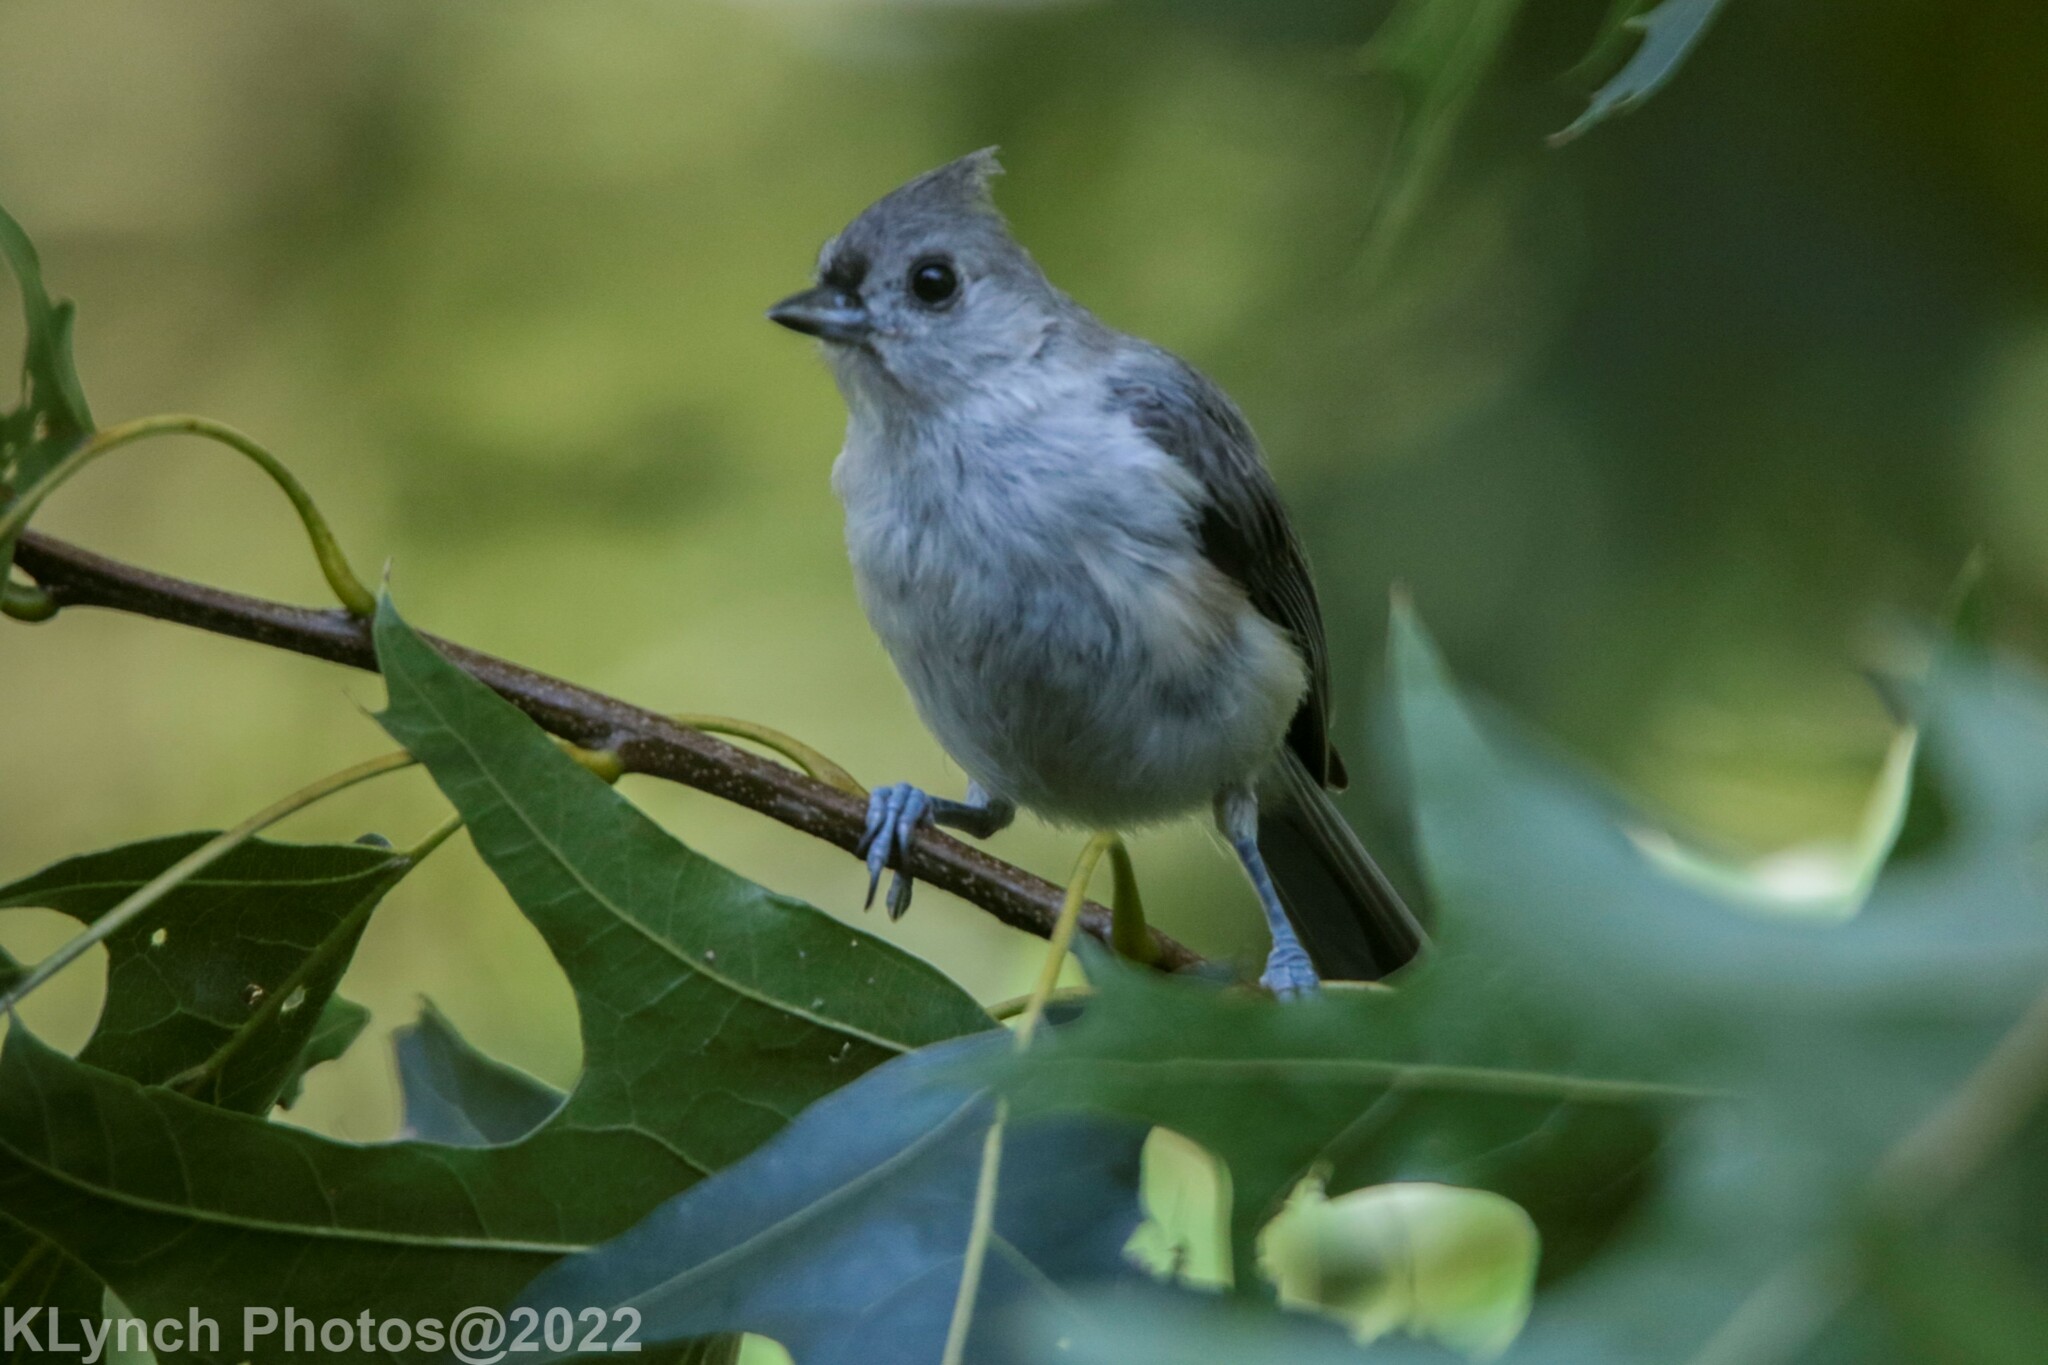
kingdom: Animalia
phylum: Chordata
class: Aves
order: Passeriformes
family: Paridae
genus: Baeolophus
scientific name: Baeolophus bicolor
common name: Tufted titmouse
